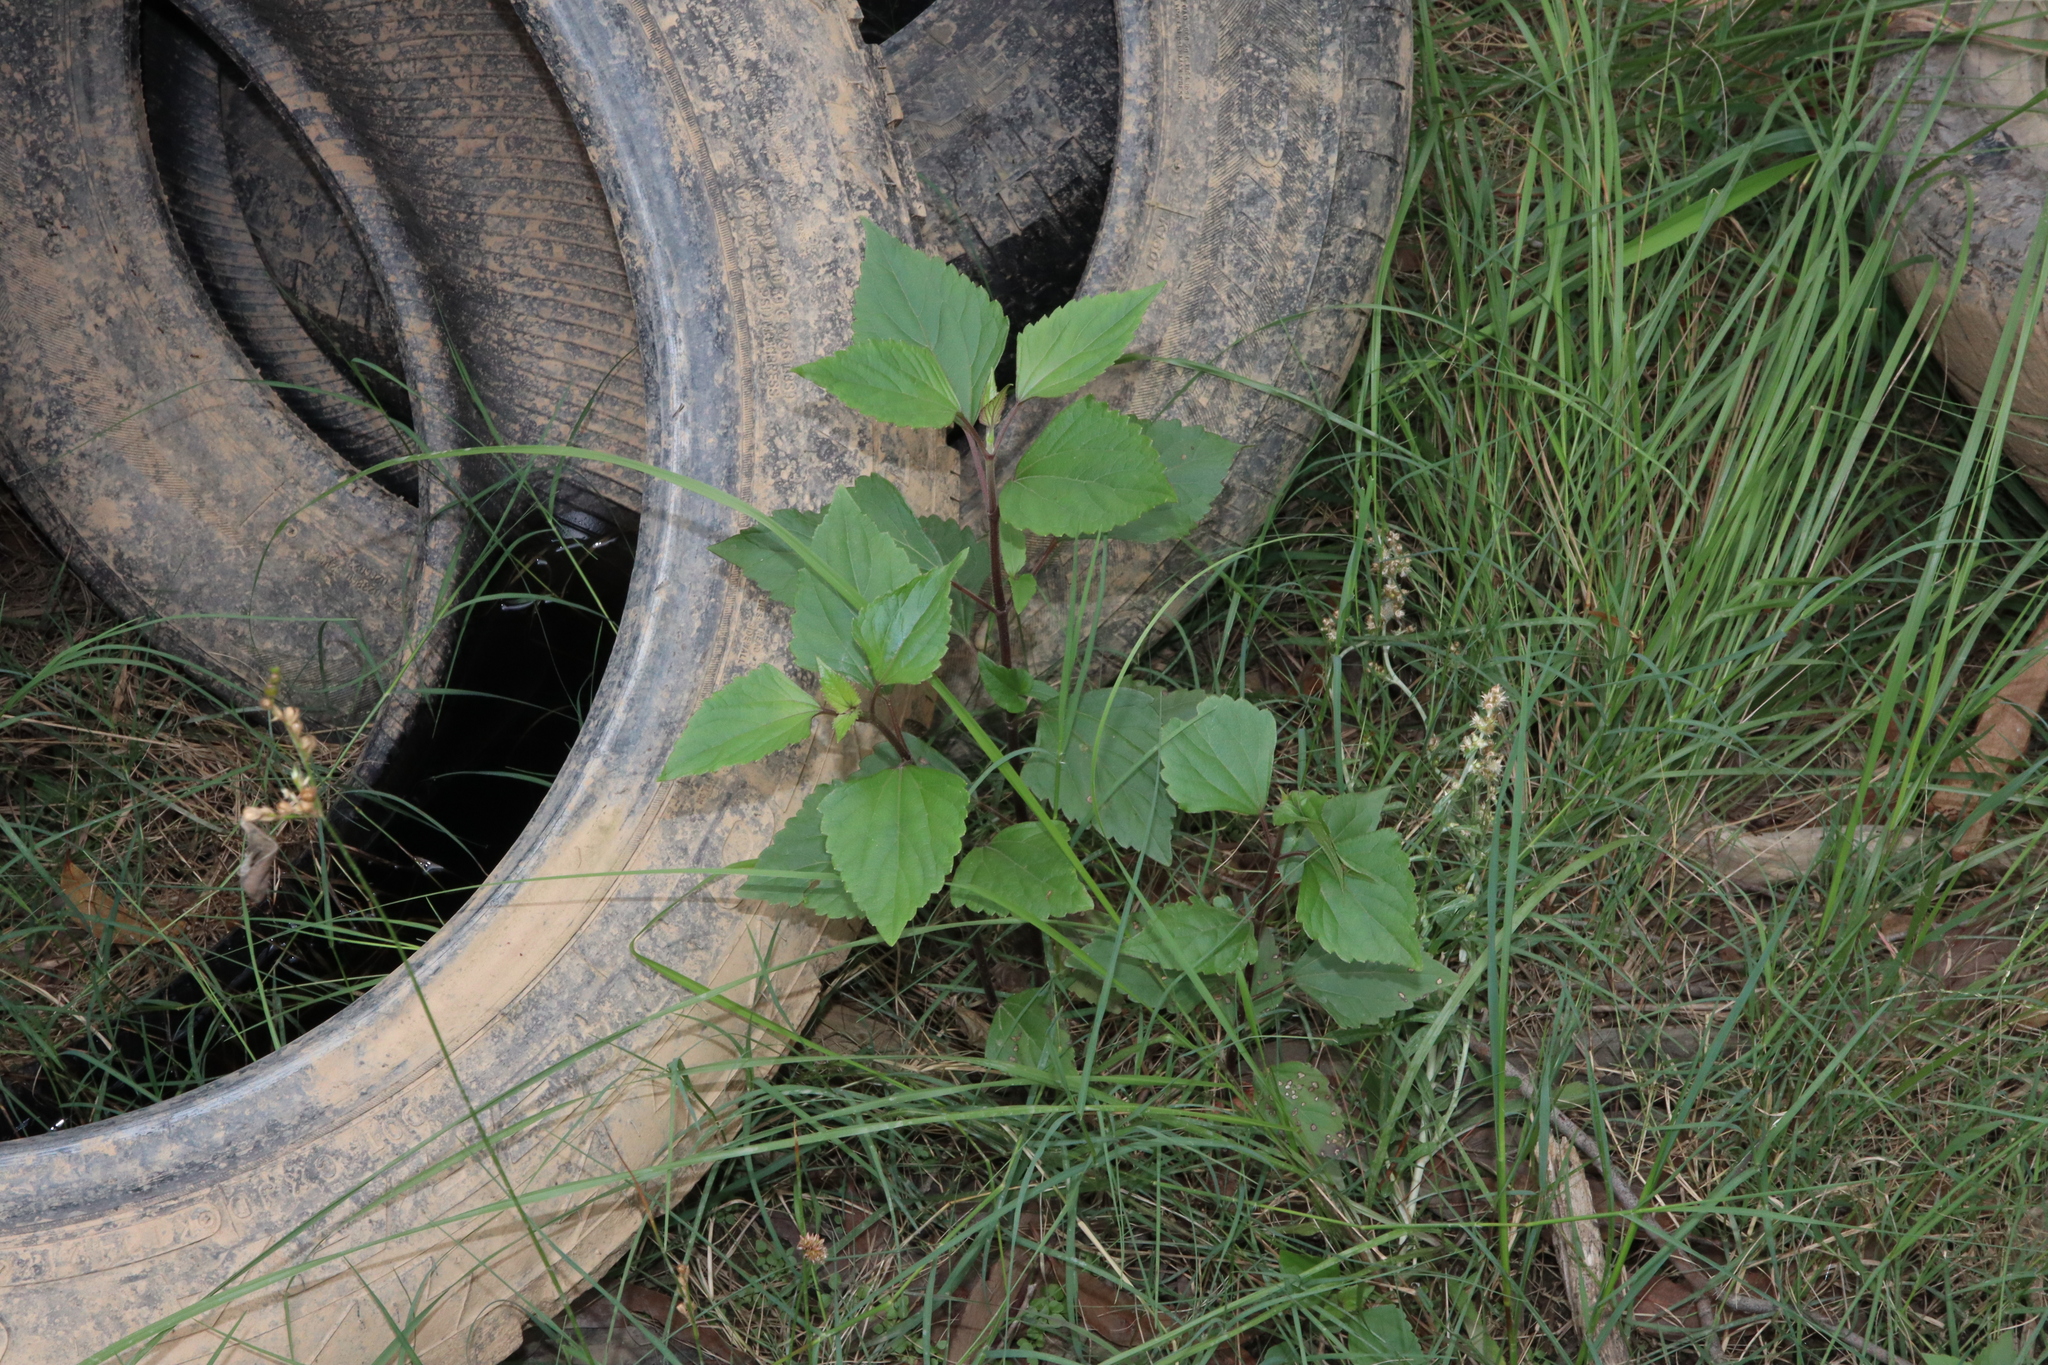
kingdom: Plantae
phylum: Tracheophyta
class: Magnoliopsida
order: Asterales
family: Asteraceae
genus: Ageratina
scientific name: Ageratina adenophora
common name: Sticky snakeroot
